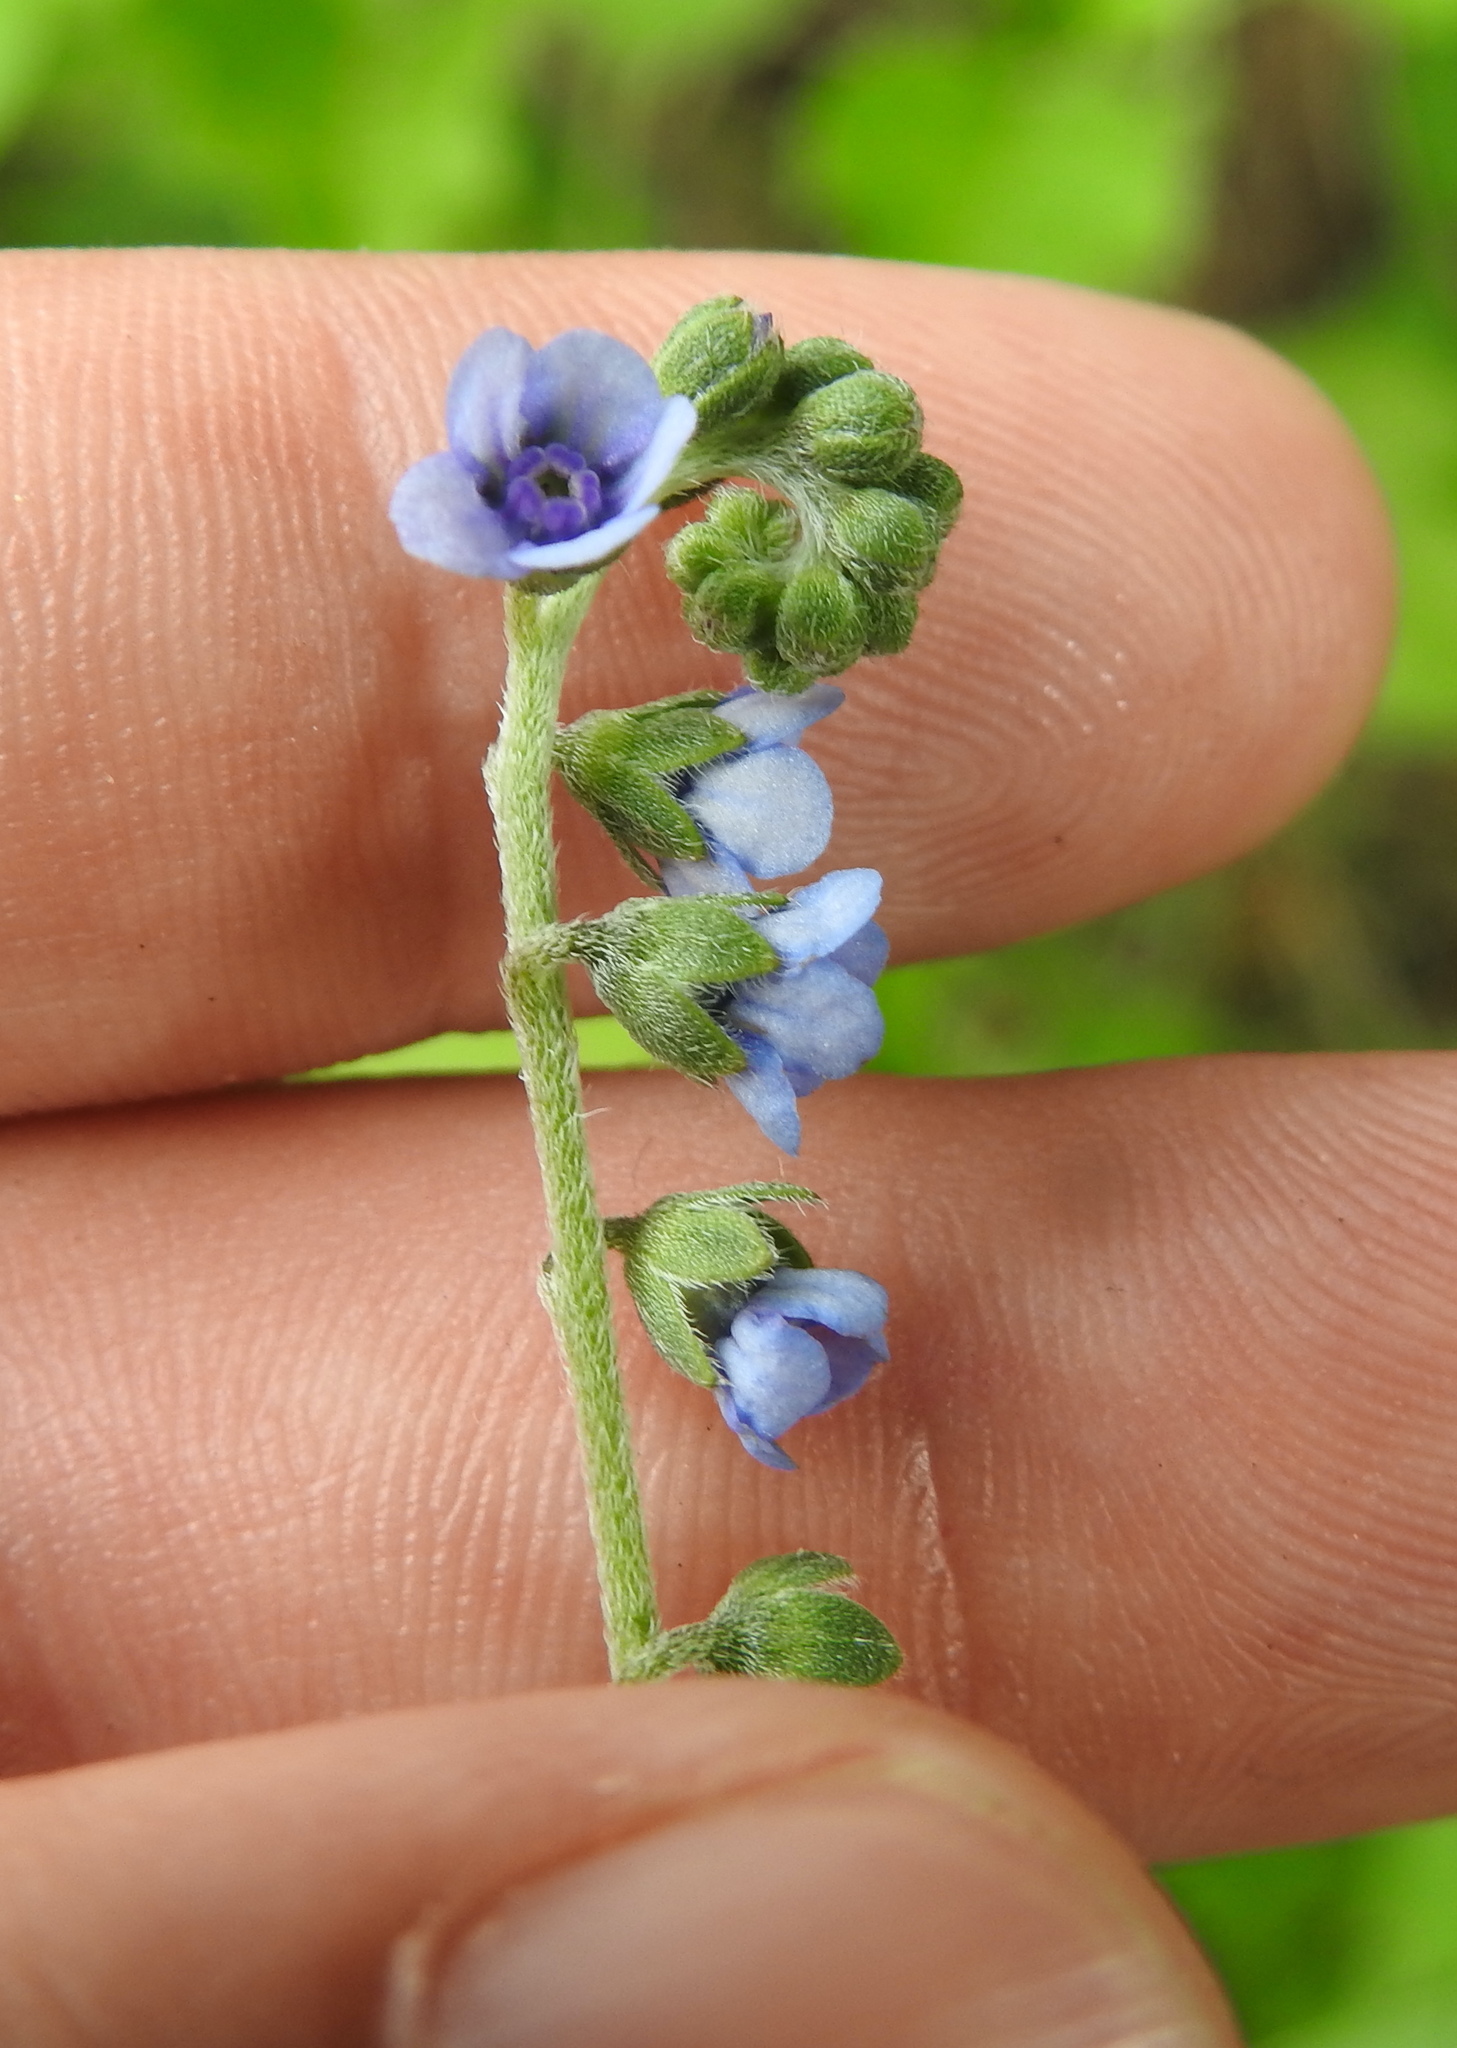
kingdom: Plantae
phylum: Tracheophyta
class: Magnoliopsida
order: Boraginales
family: Boraginaceae
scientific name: Boraginaceae
